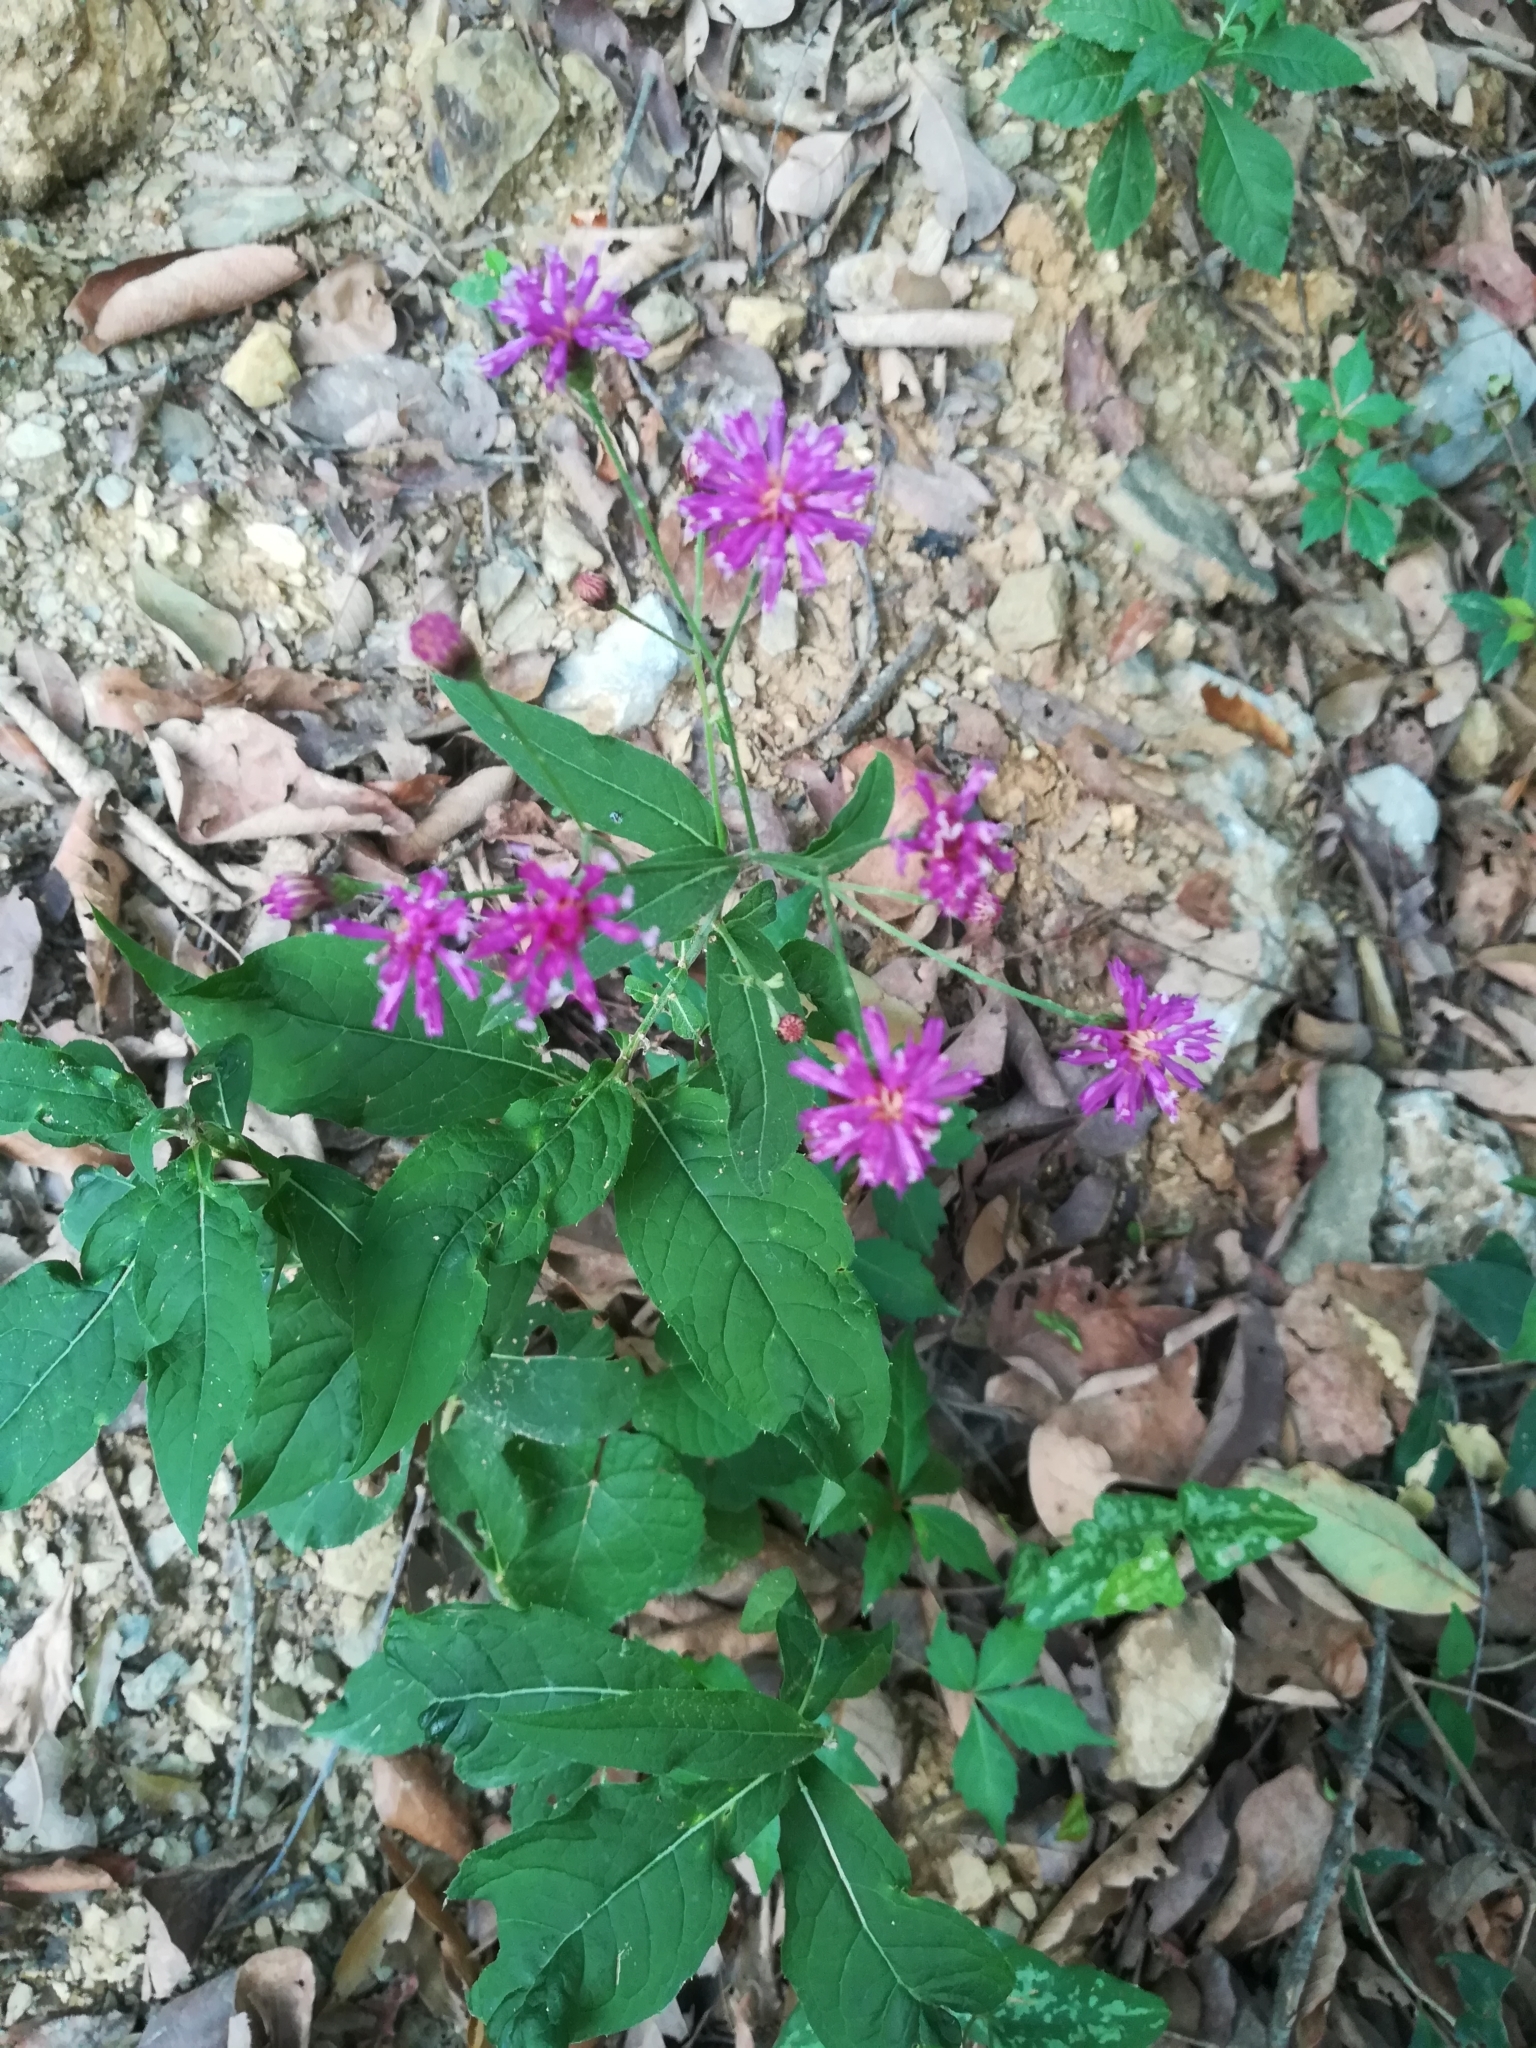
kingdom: Plantae
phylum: Tracheophyta
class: Magnoliopsida
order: Asterales
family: Asteraceae
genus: Vernonia
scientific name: Vernonia greggii
